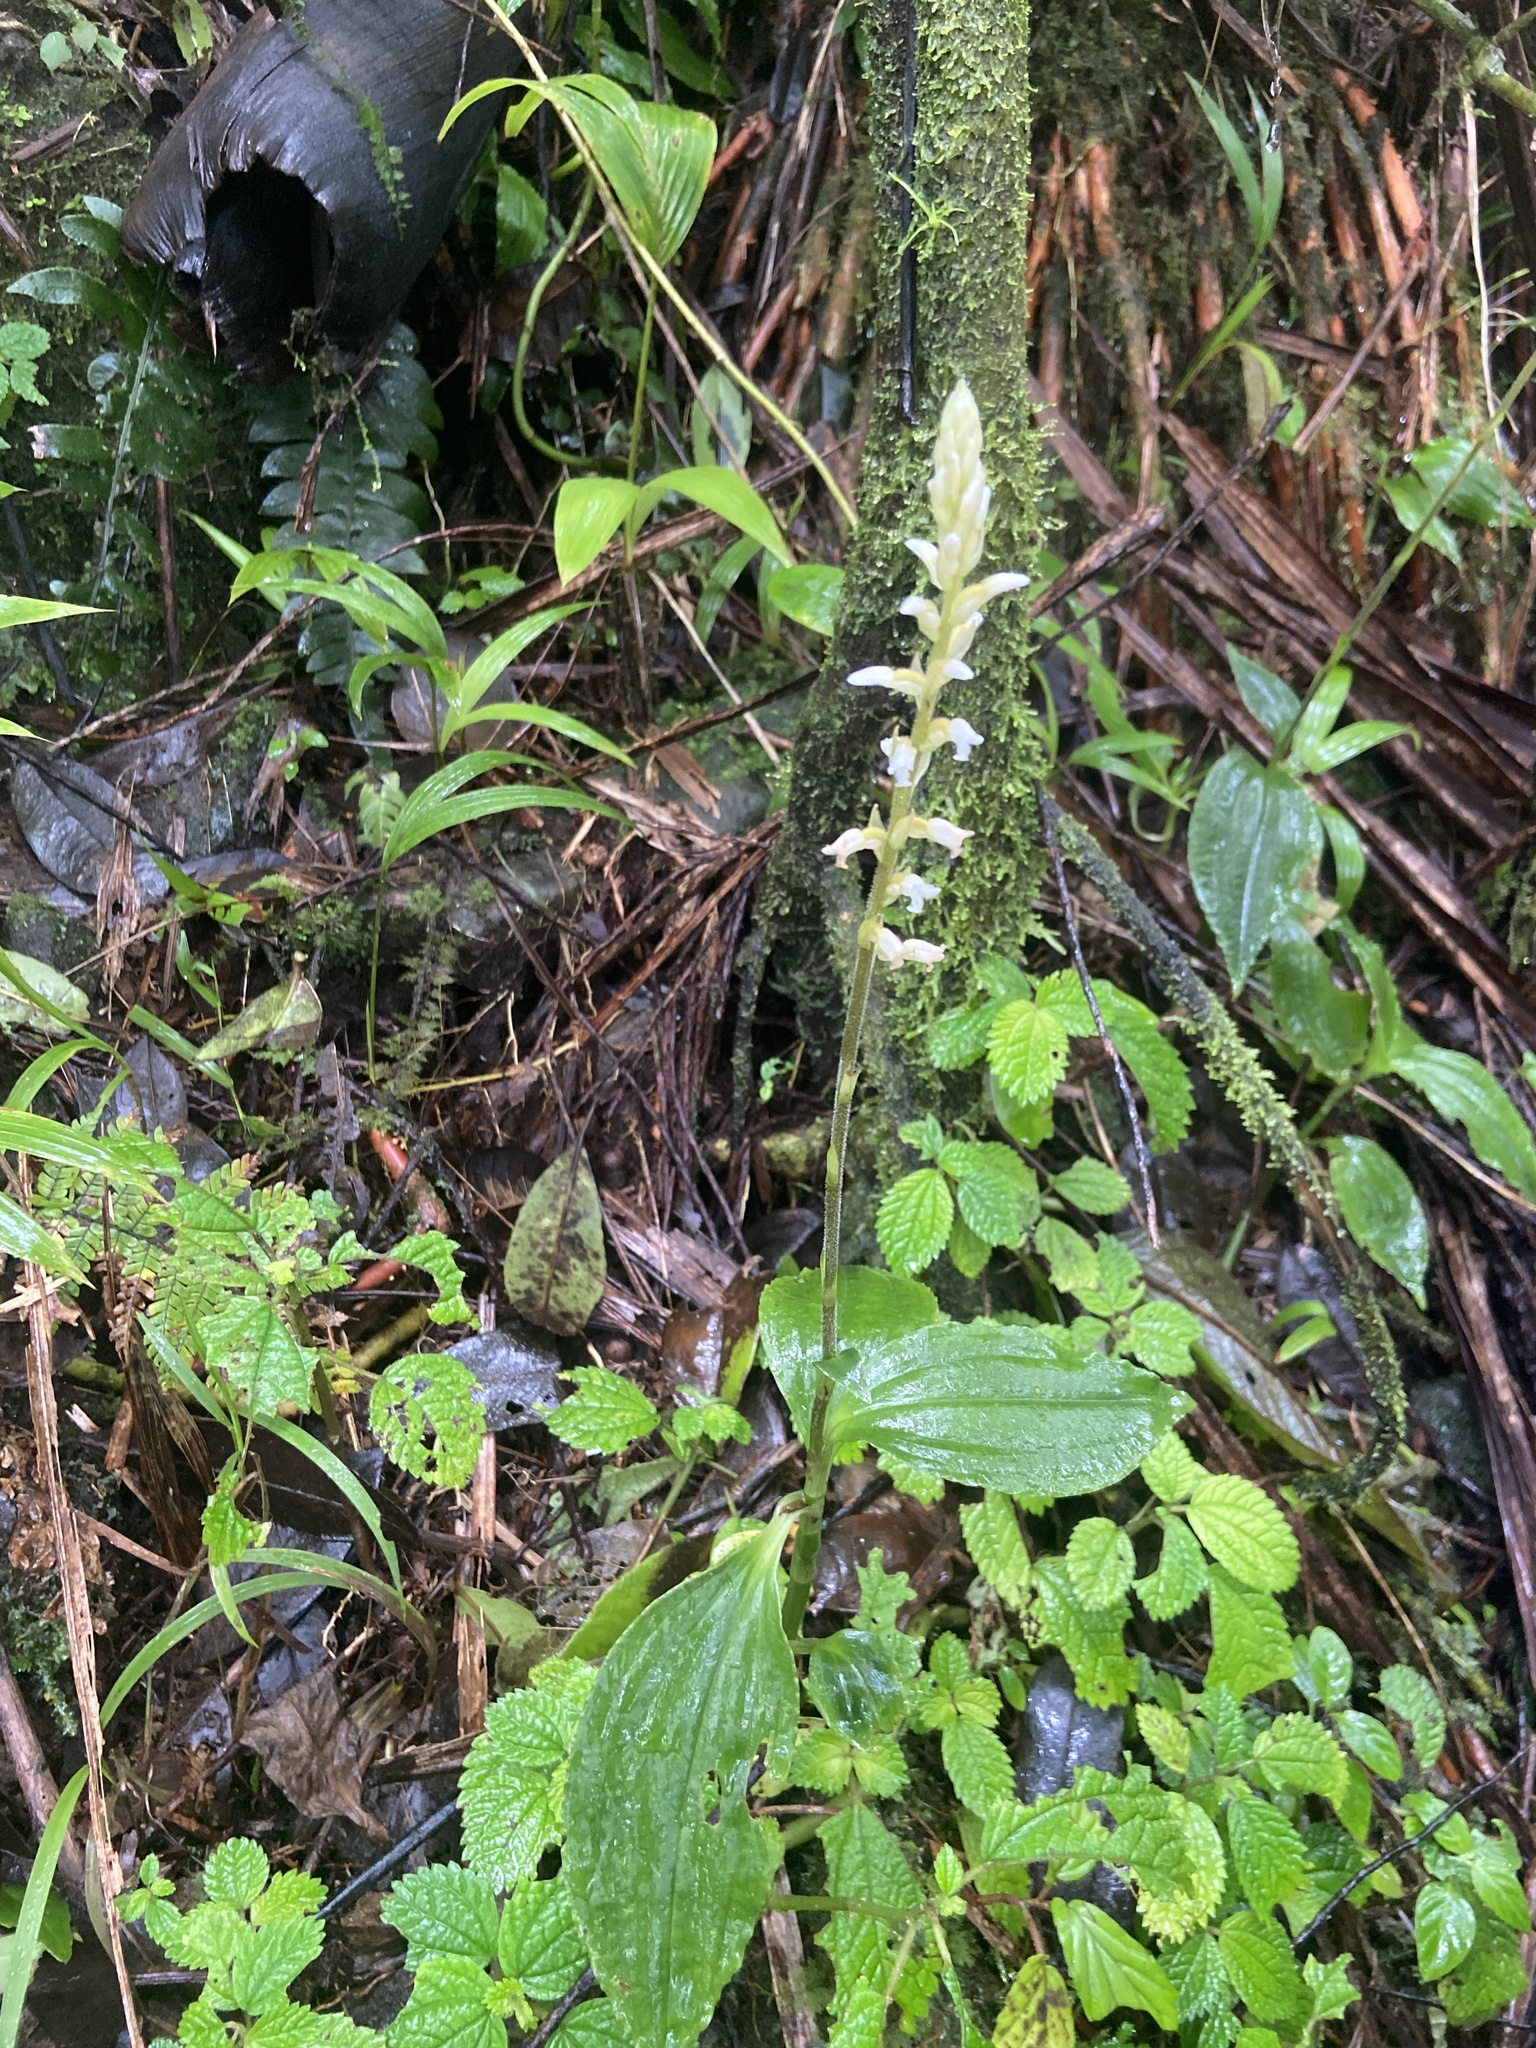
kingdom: Plantae
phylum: Tracheophyta
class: Liliopsida
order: Asparagales
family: Orchidaceae
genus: Microchilus
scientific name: Microchilus plantagineus
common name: Caribbean false helmetorchid
